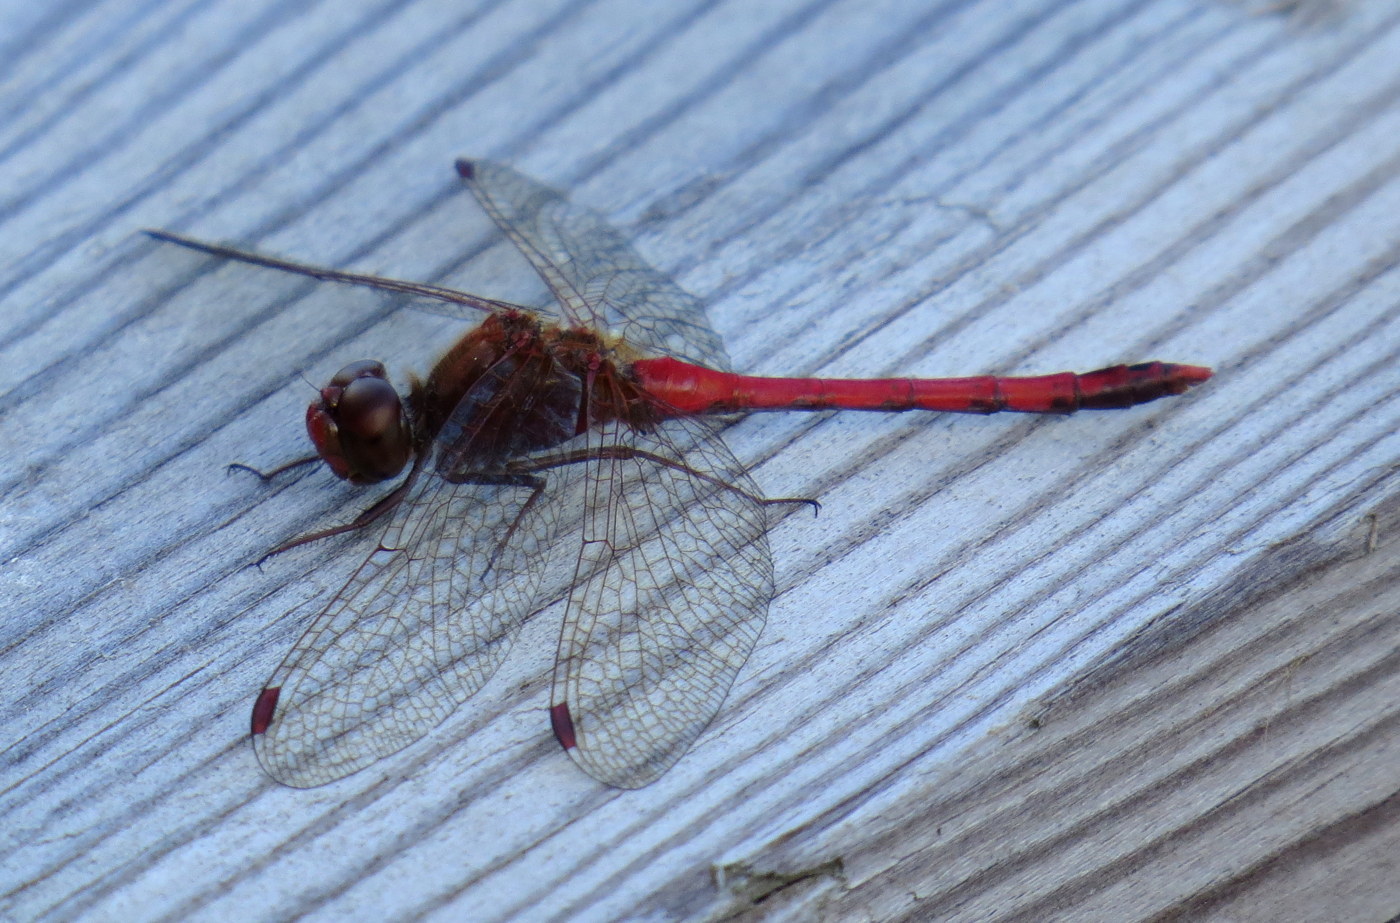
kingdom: Animalia
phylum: Arthropoda
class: Insecta
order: Odonata
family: Libellulidae
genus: Sympetrum
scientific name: Sympetrum vicinum
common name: Autumn meadowhawk
